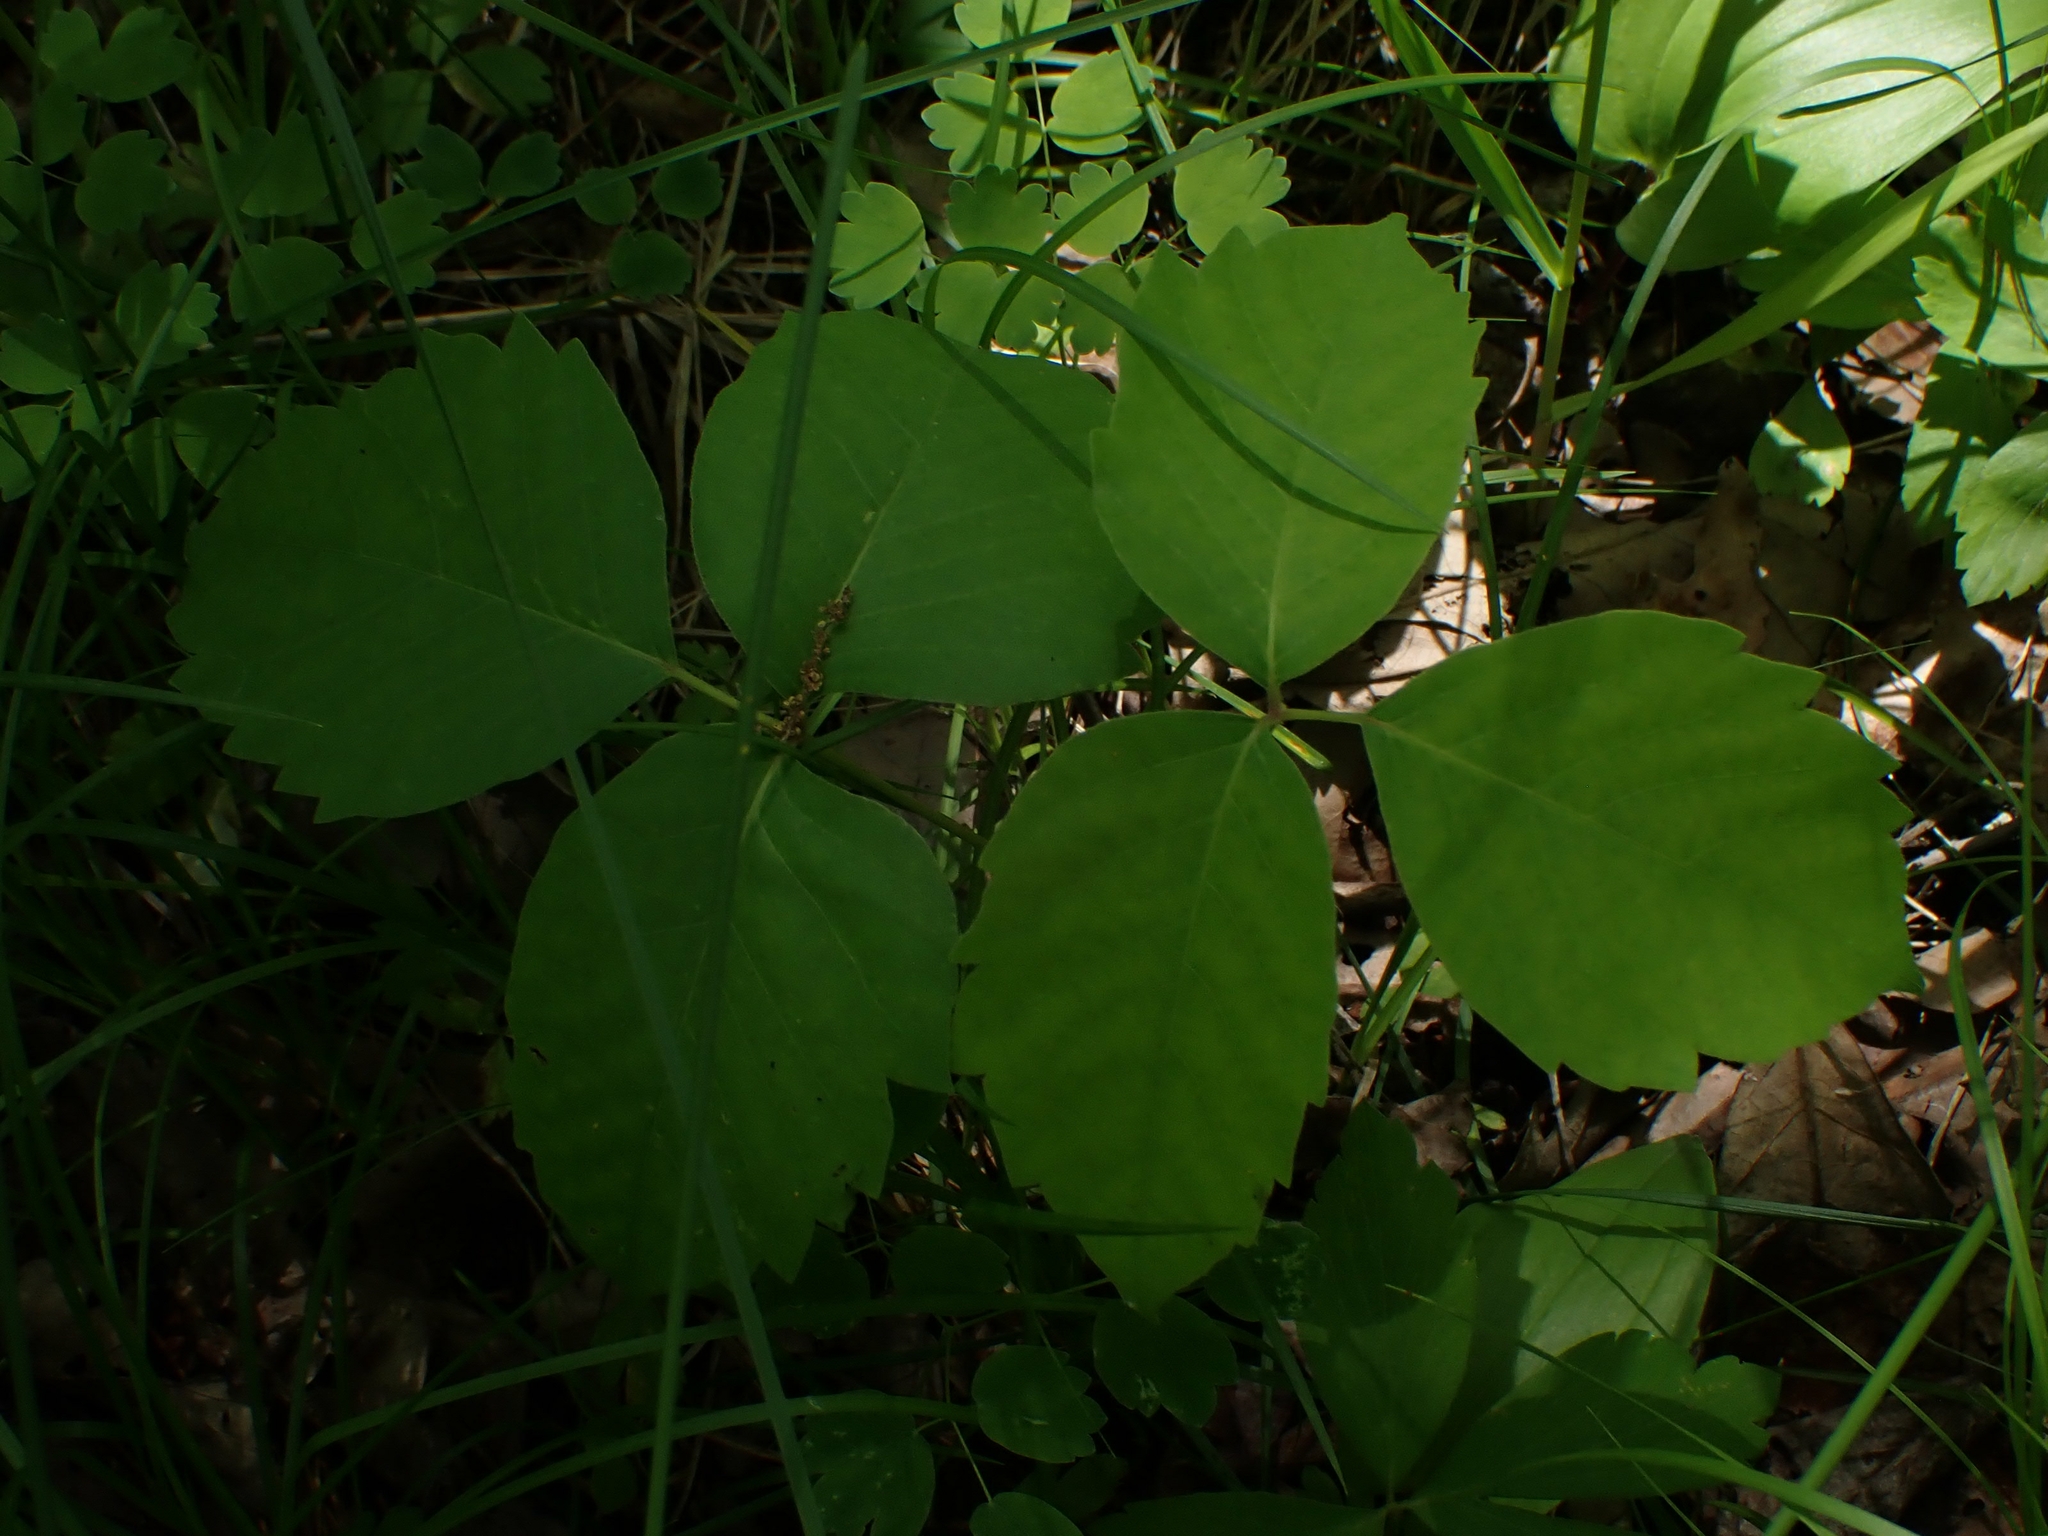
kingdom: Plantae
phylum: Tracheophyta
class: Magnoliopsida
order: Sapindales
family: Anacardiaceae
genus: Toxicodendron
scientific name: Toxicodendron rydbergii
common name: Rydberg's poison-ivy
